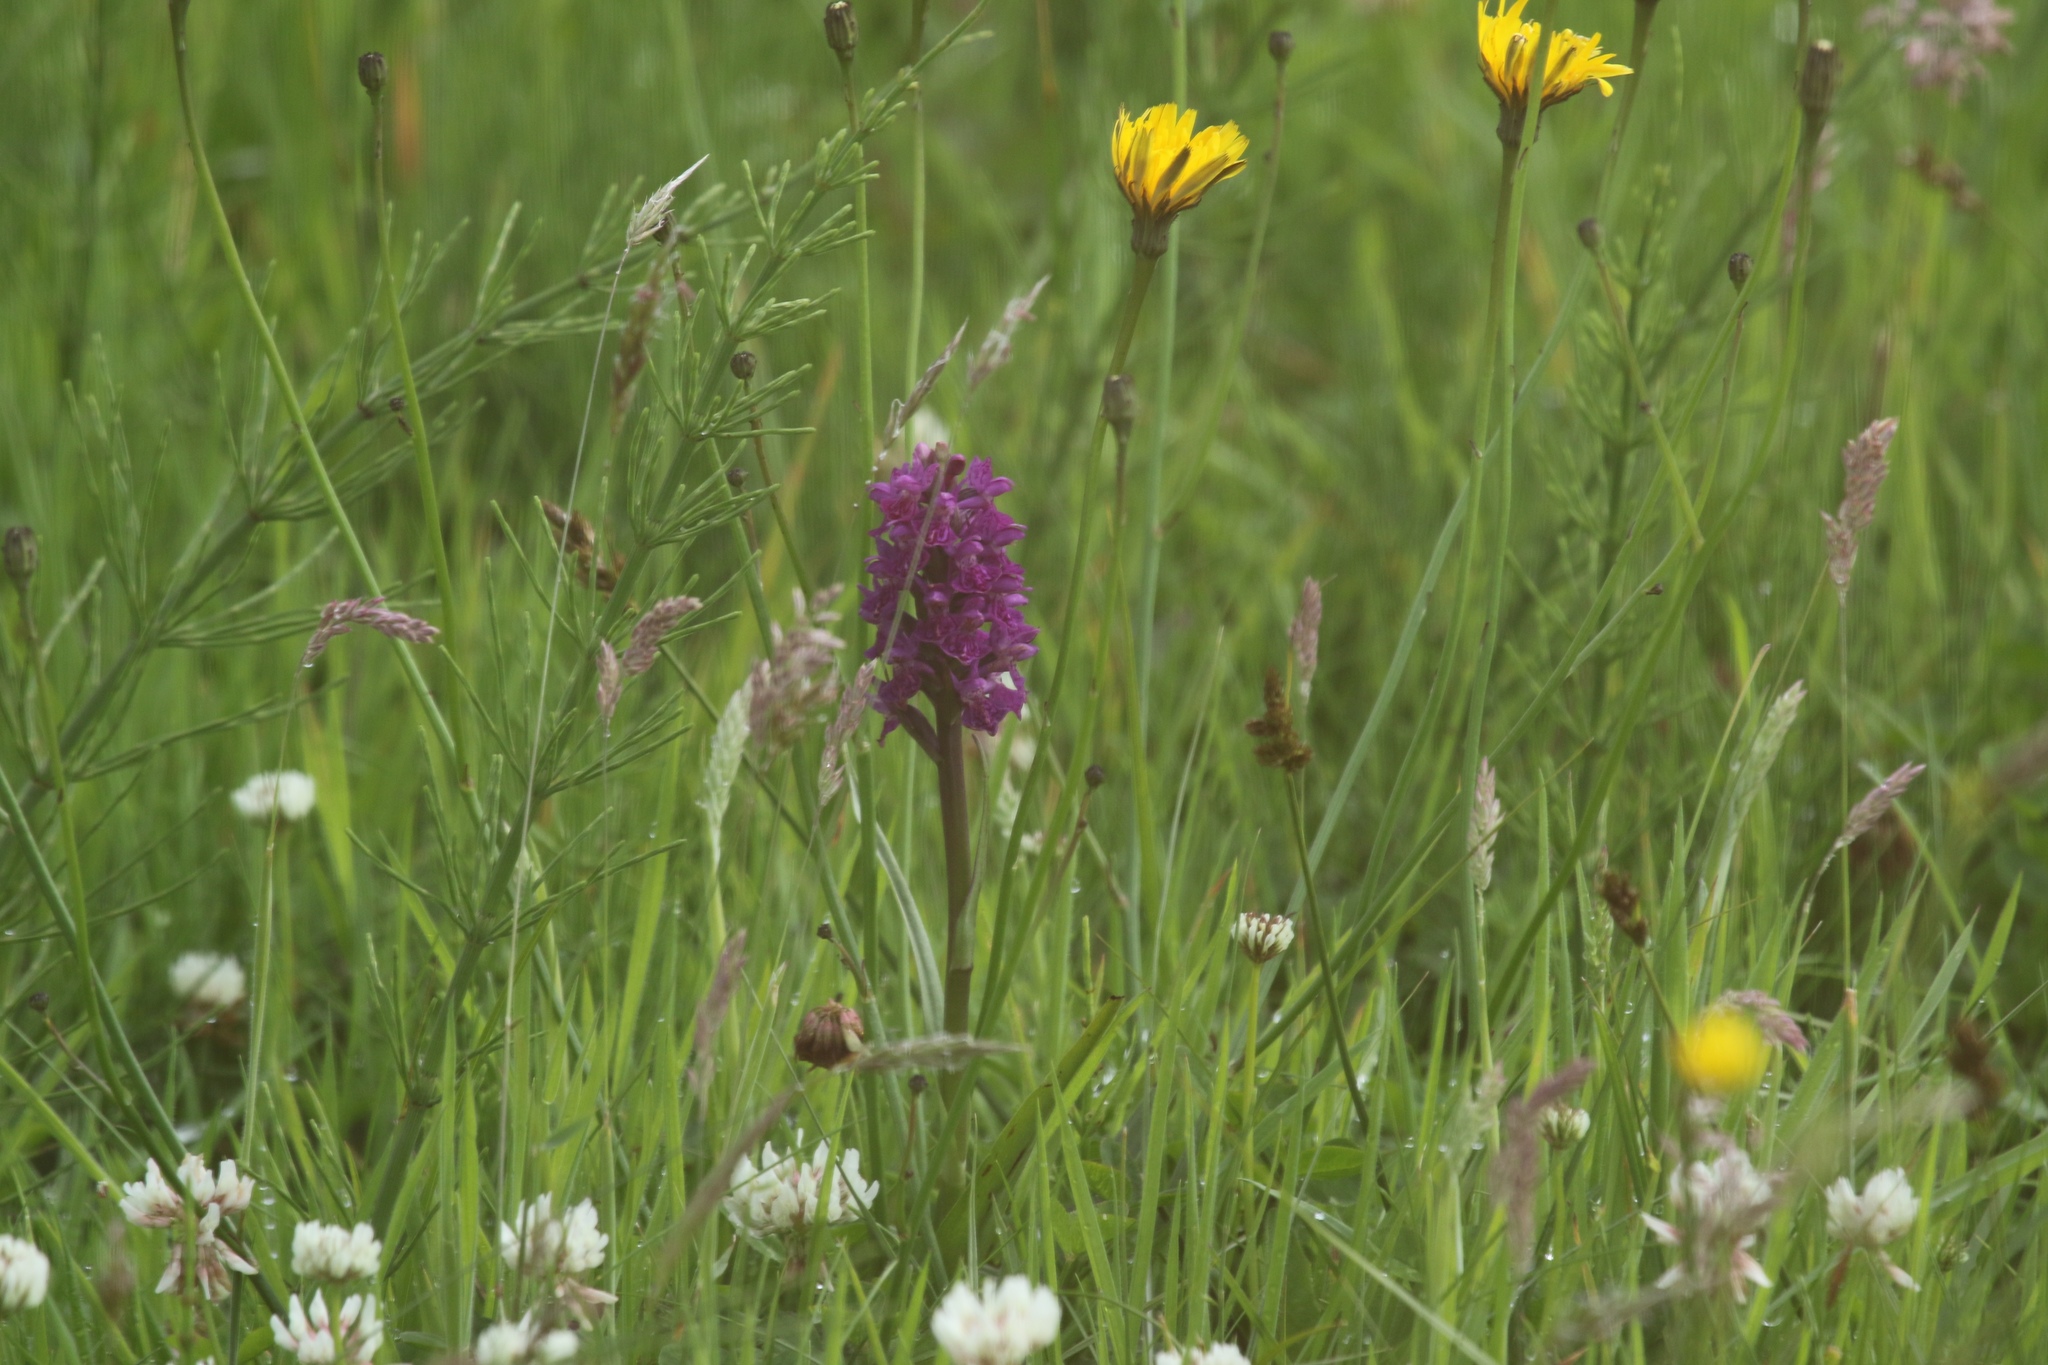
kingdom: Plantae
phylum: Tracheophyta
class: Liliopsida
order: Asparagales
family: Orchidaceae
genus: Dactylorhiza
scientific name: Dactylorhiza majalis
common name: Marsh orchid
